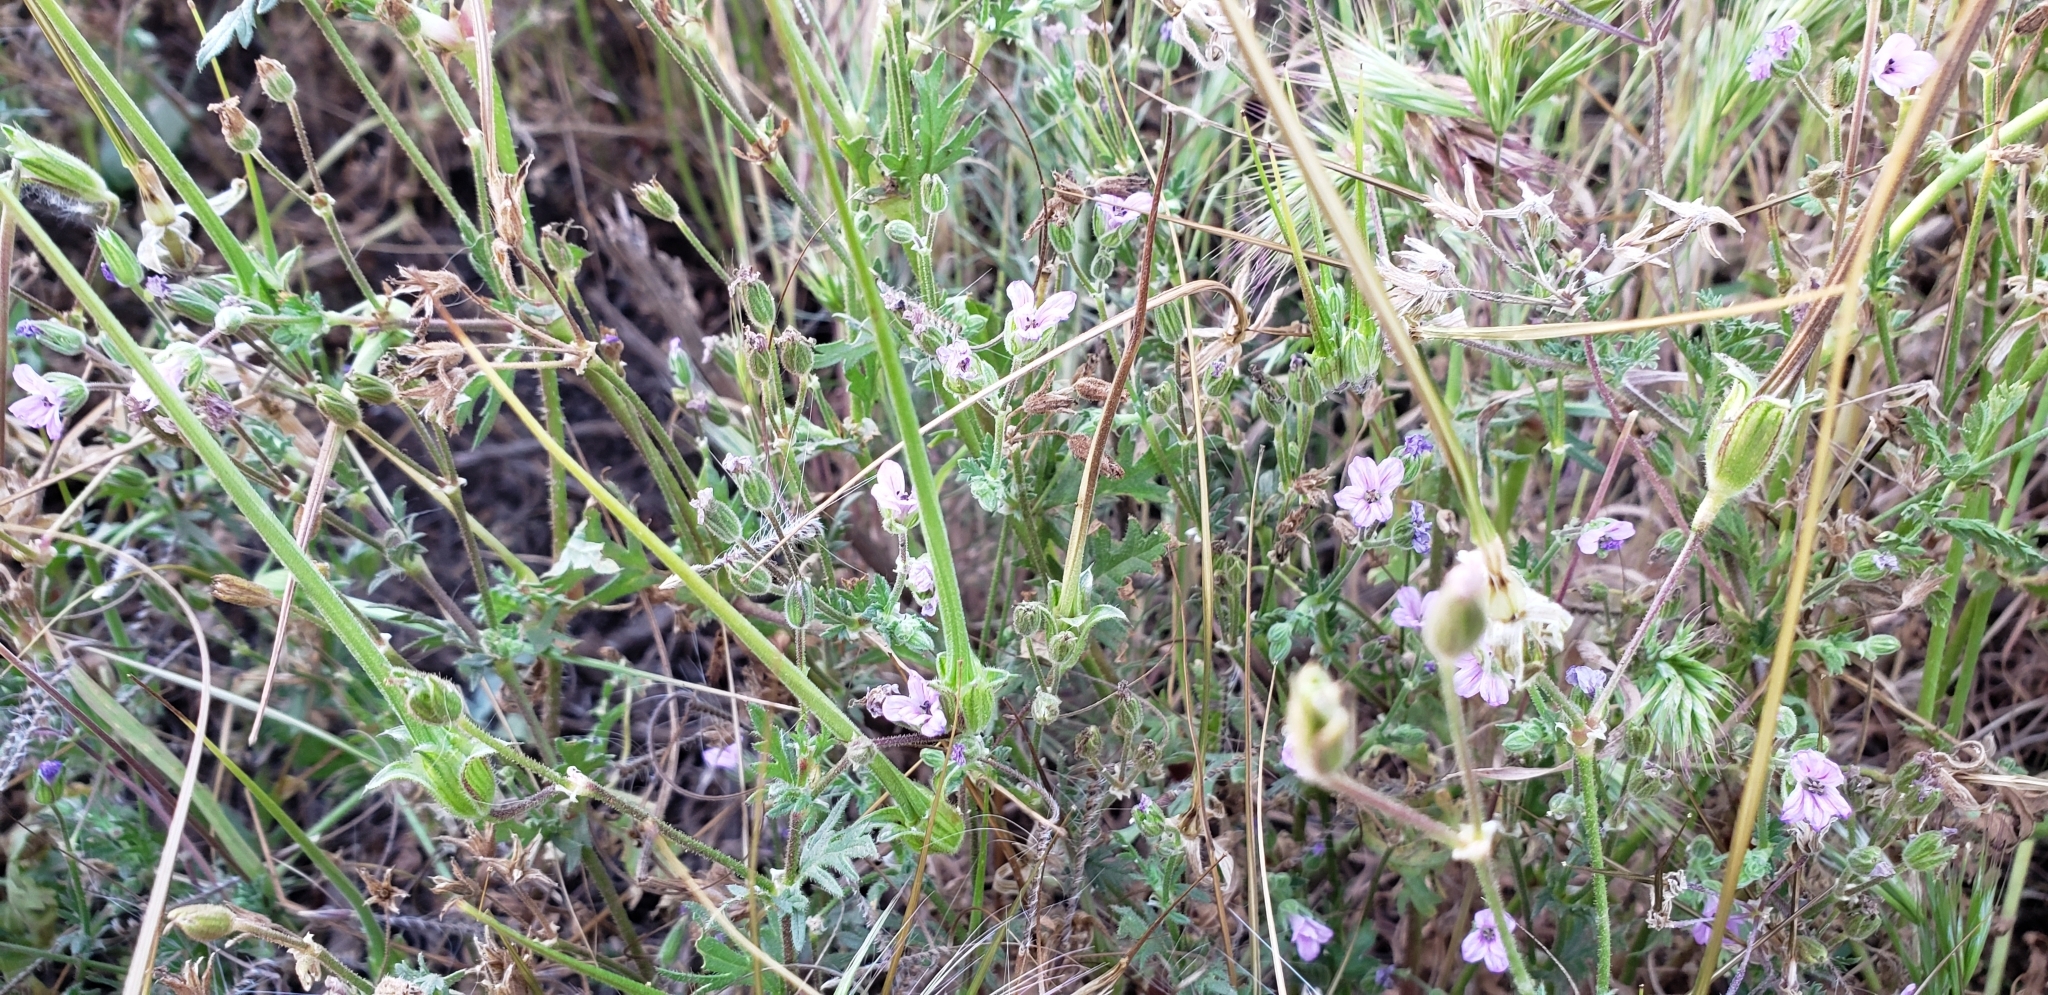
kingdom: Plantae
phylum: Tracheophyta
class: Magnoliopsida
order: Geraniales
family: Geraniaceae
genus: Erodium
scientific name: Erodium botrys
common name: Mediterranean stork's-bill
